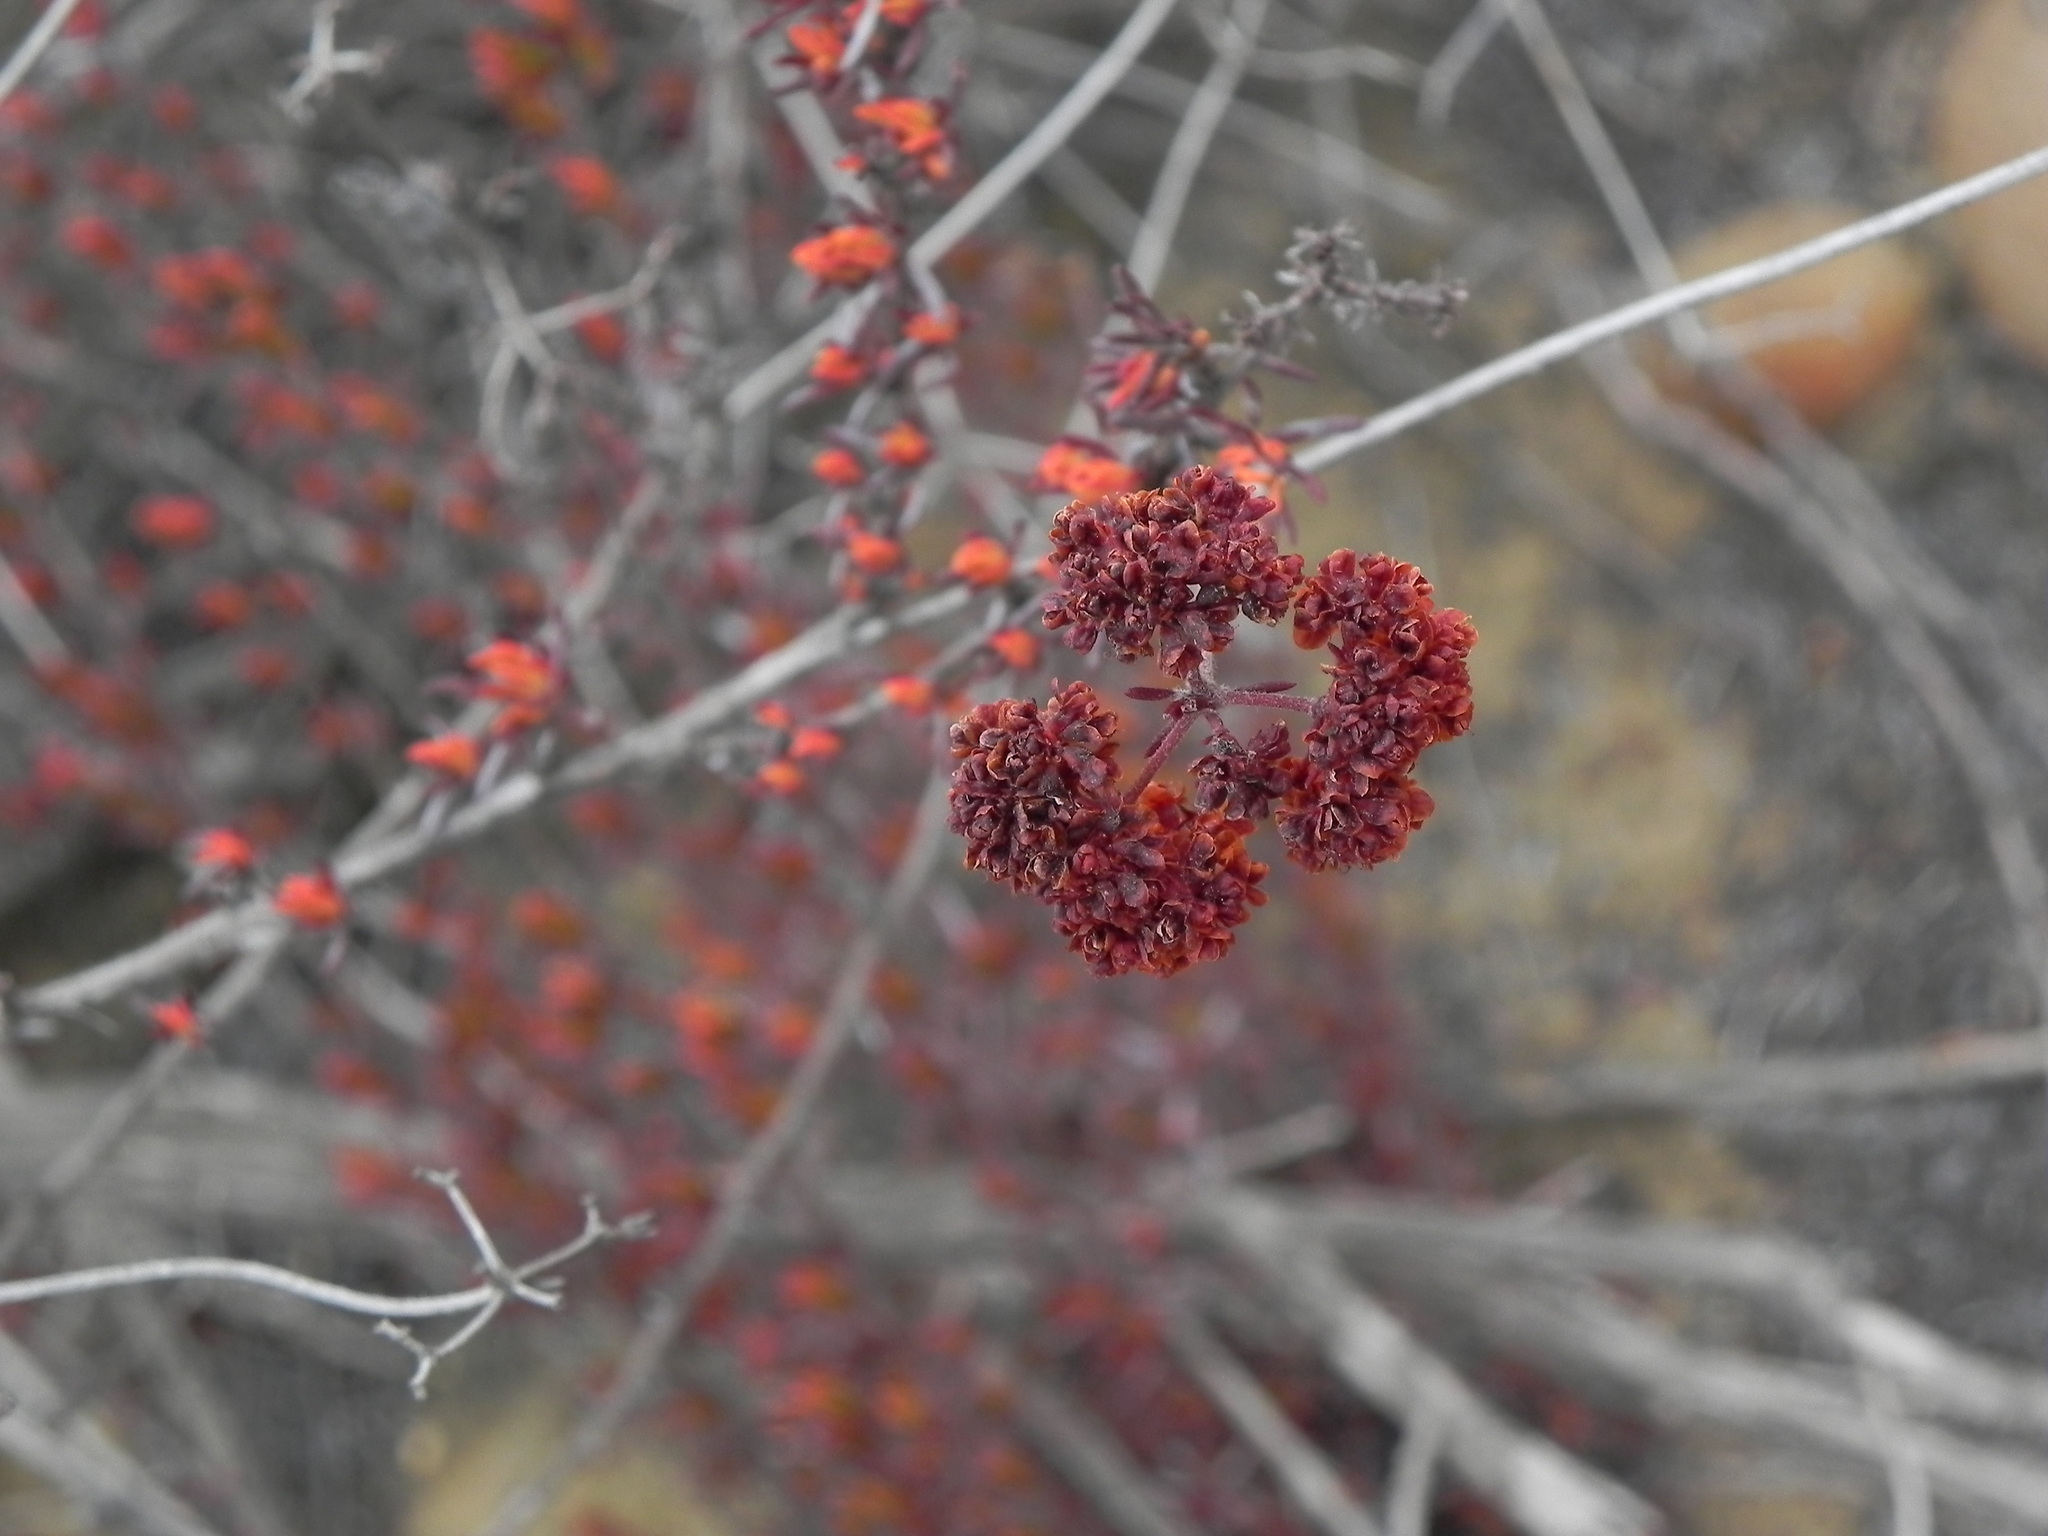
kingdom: Plantae
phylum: Tracheophyta
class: Magnoliopsida
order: Caryophyllales
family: Polygonaceae
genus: Eriogonum
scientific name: Eriogonum fasciculatum
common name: California wild buckwheat
